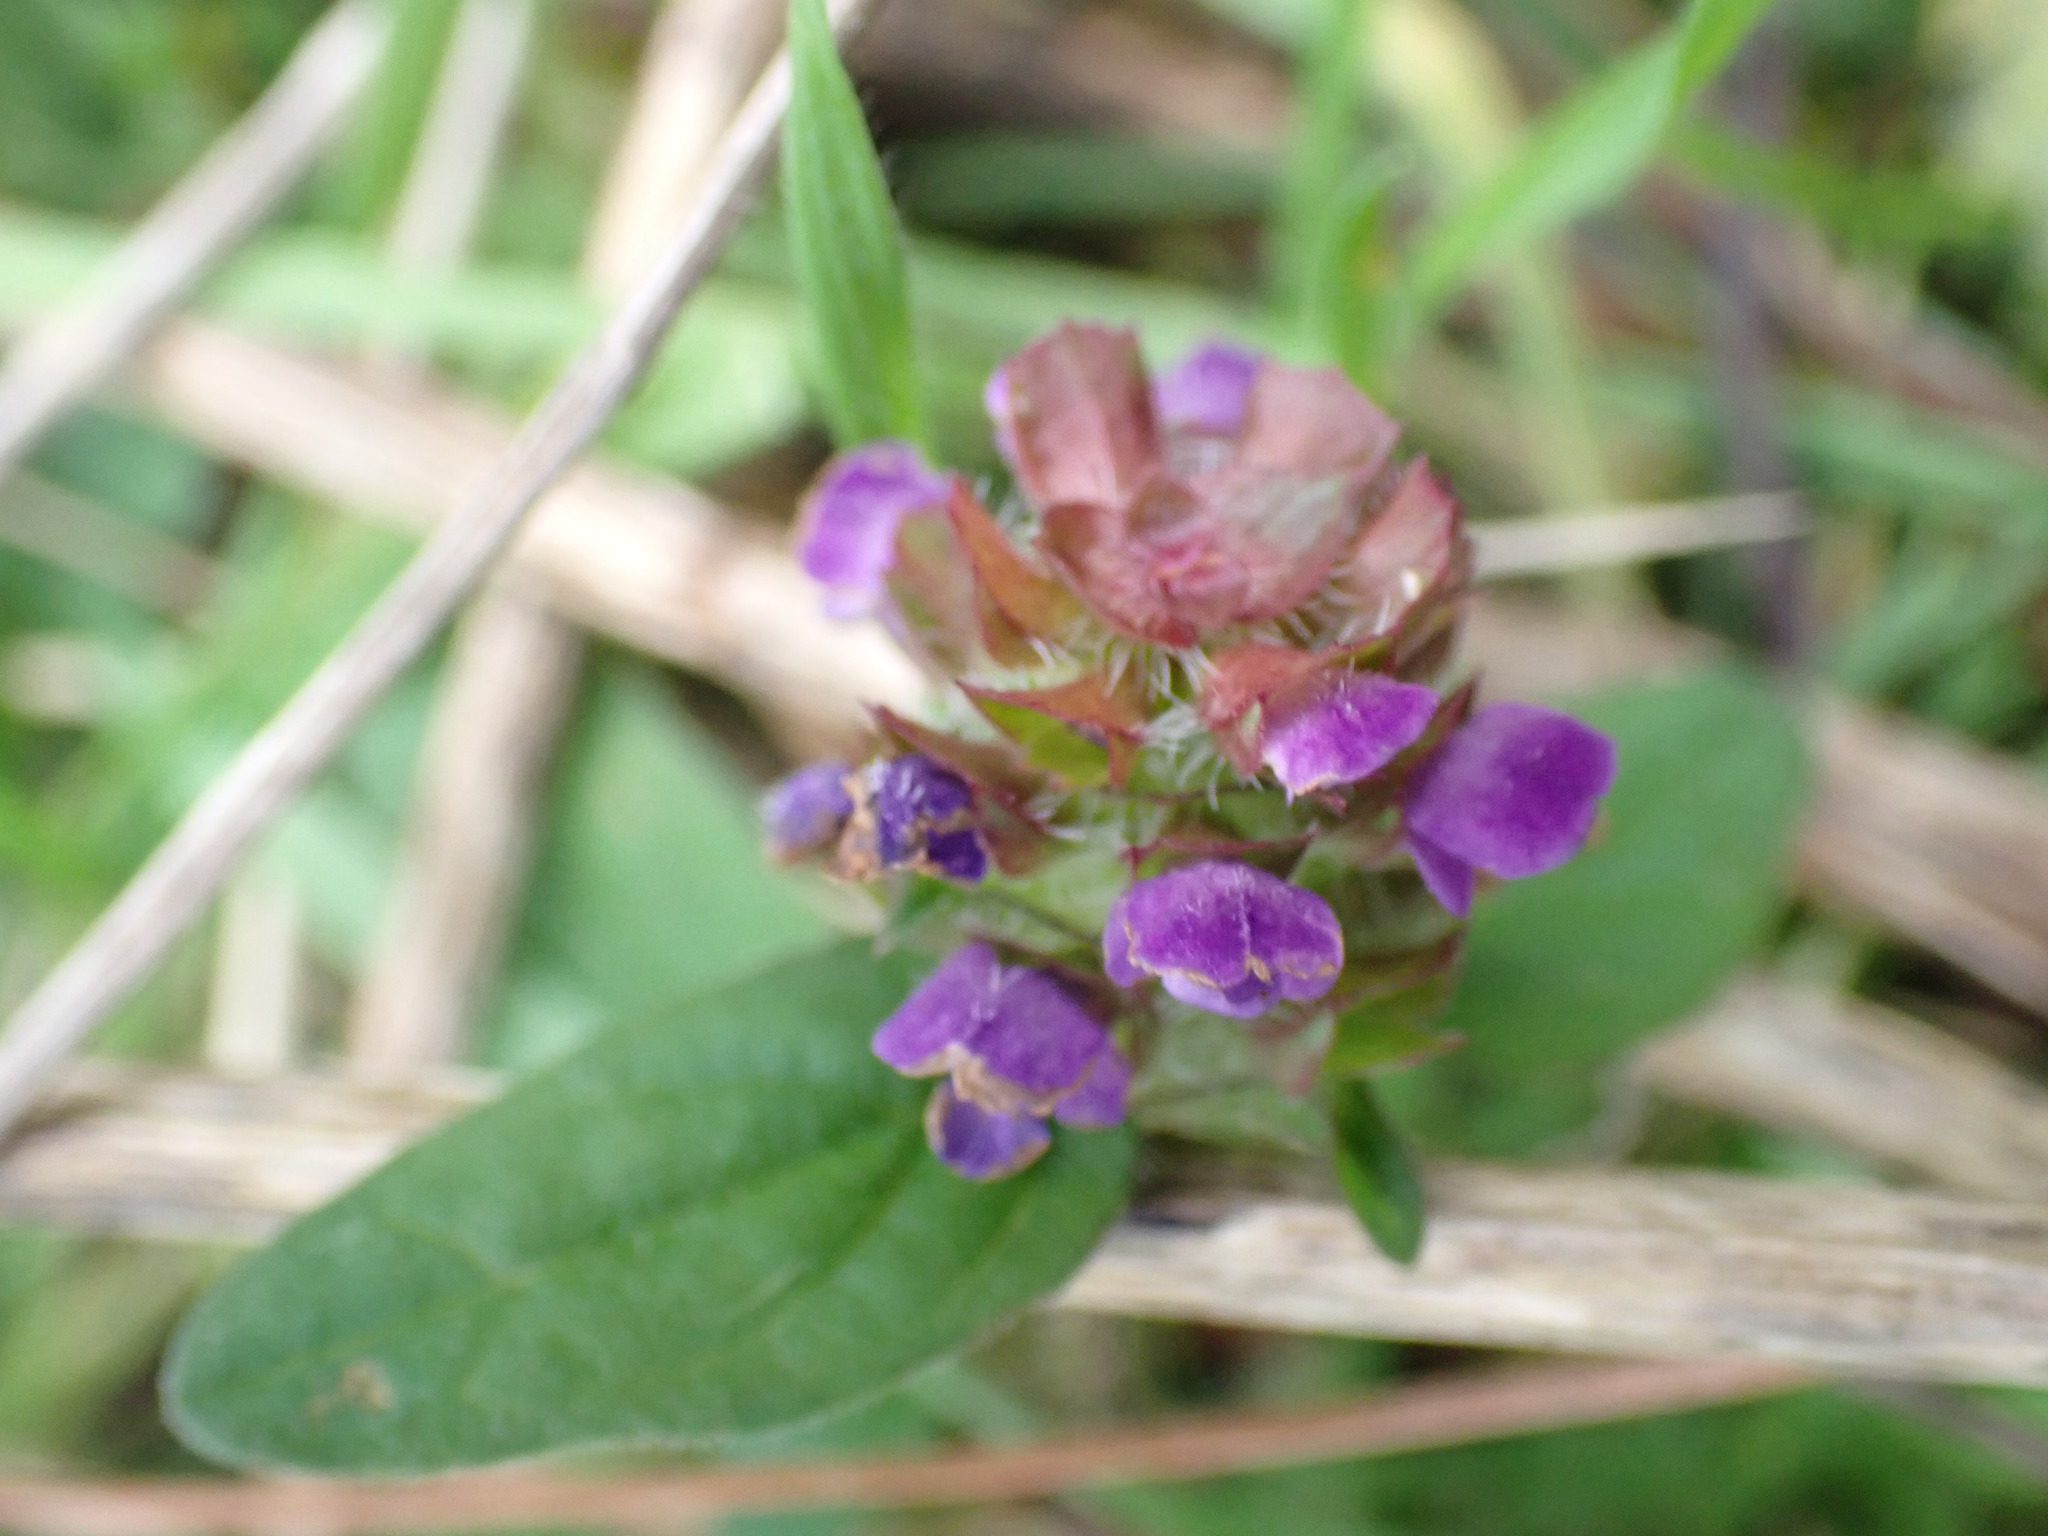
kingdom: Plantae
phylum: Tracheophyta
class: Magnoliopsida
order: Lamiales
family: Lamiaceae
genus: Prunella
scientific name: Prunella vulgaris
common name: Heal-all
